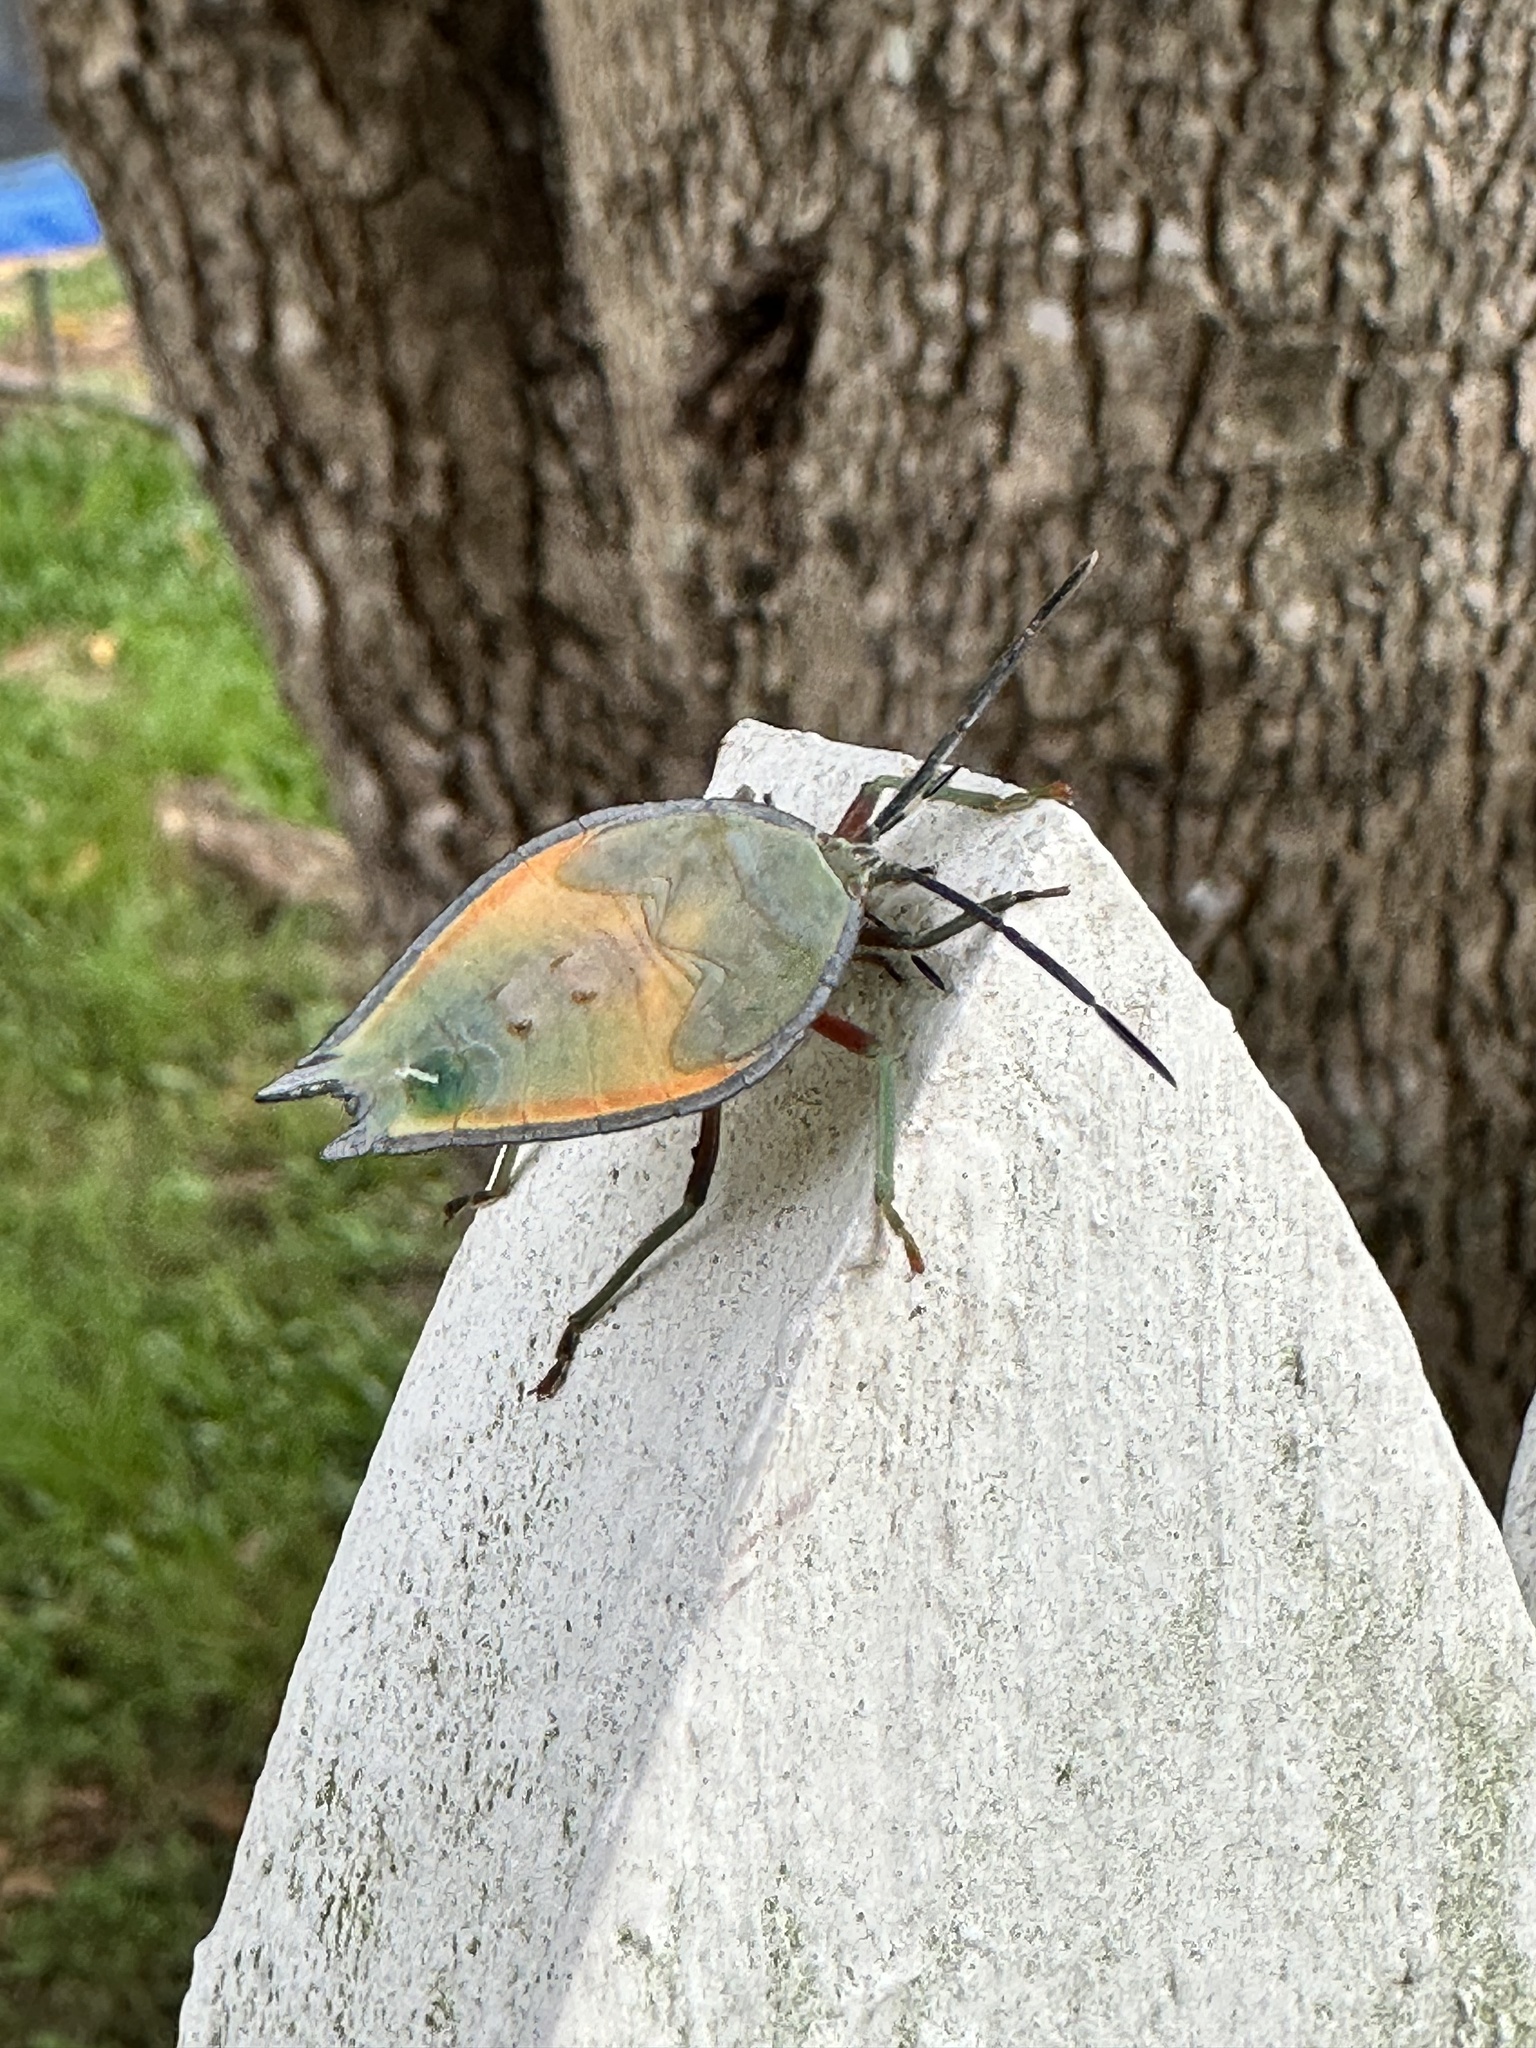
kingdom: Animalia
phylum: Arthropoda
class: Insecta
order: Hemiptera
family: Tessaratomidae
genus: Lyramorpha
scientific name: Lyramorpha rosea
